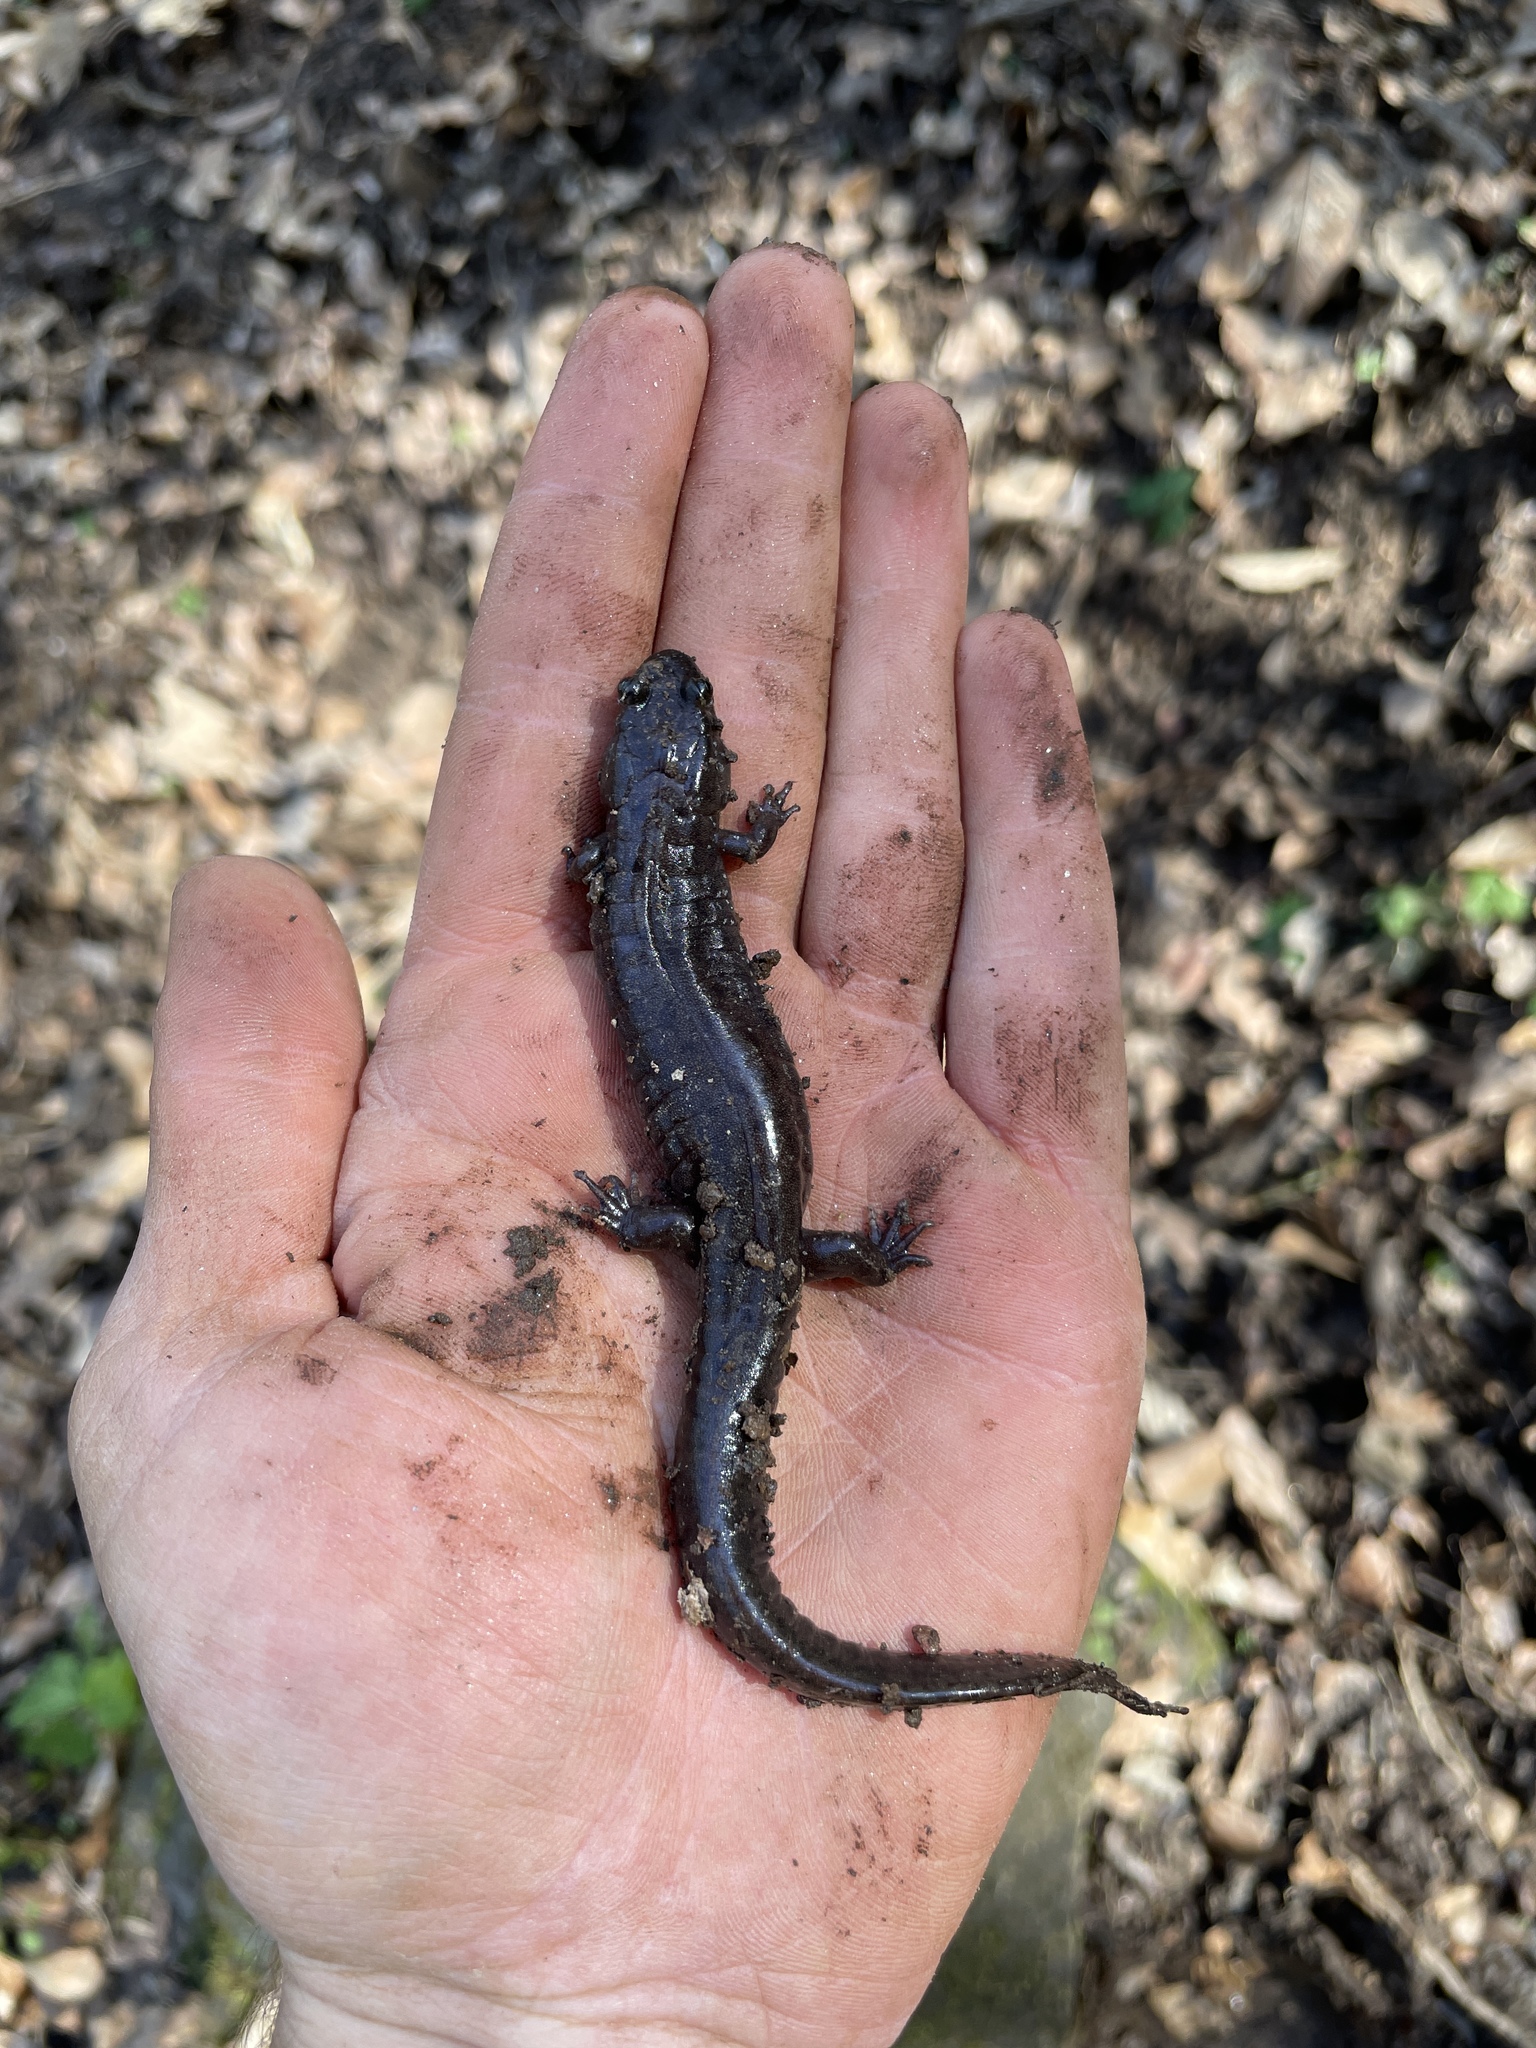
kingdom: Animalia
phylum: Chordata
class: Amphibia
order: Caudata
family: Plethodontidae
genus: Desmognathus
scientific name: Desmognathus monticola
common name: Seal salamander
